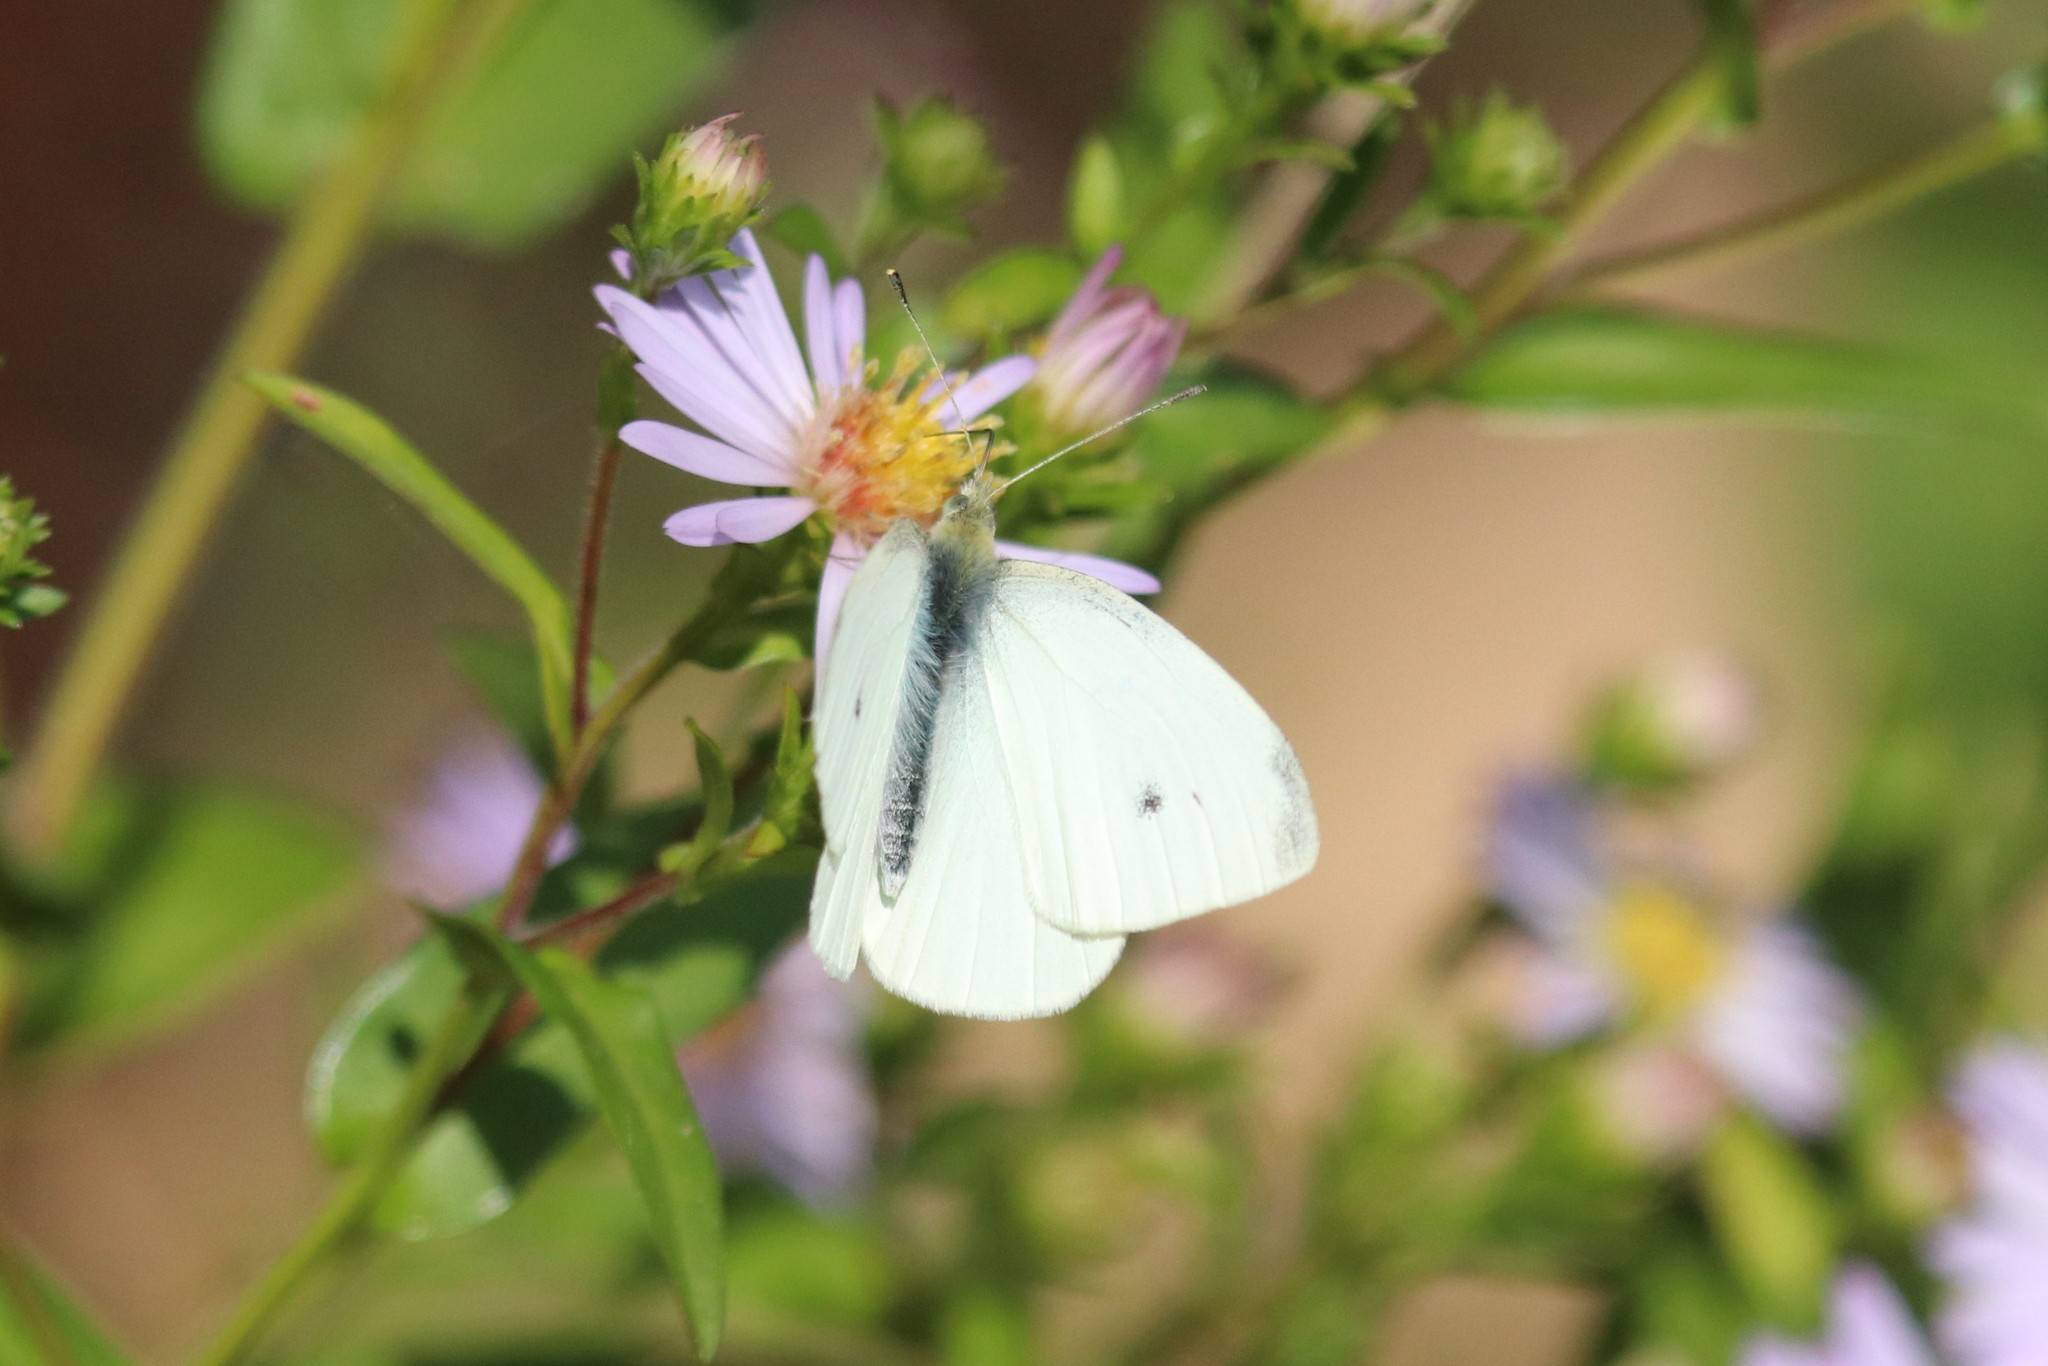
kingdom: Animalia
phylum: Arthropoda
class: Insecta
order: Lepidoptera
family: Pieridae
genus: Pieris
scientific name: Pieris rapae
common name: Small white
